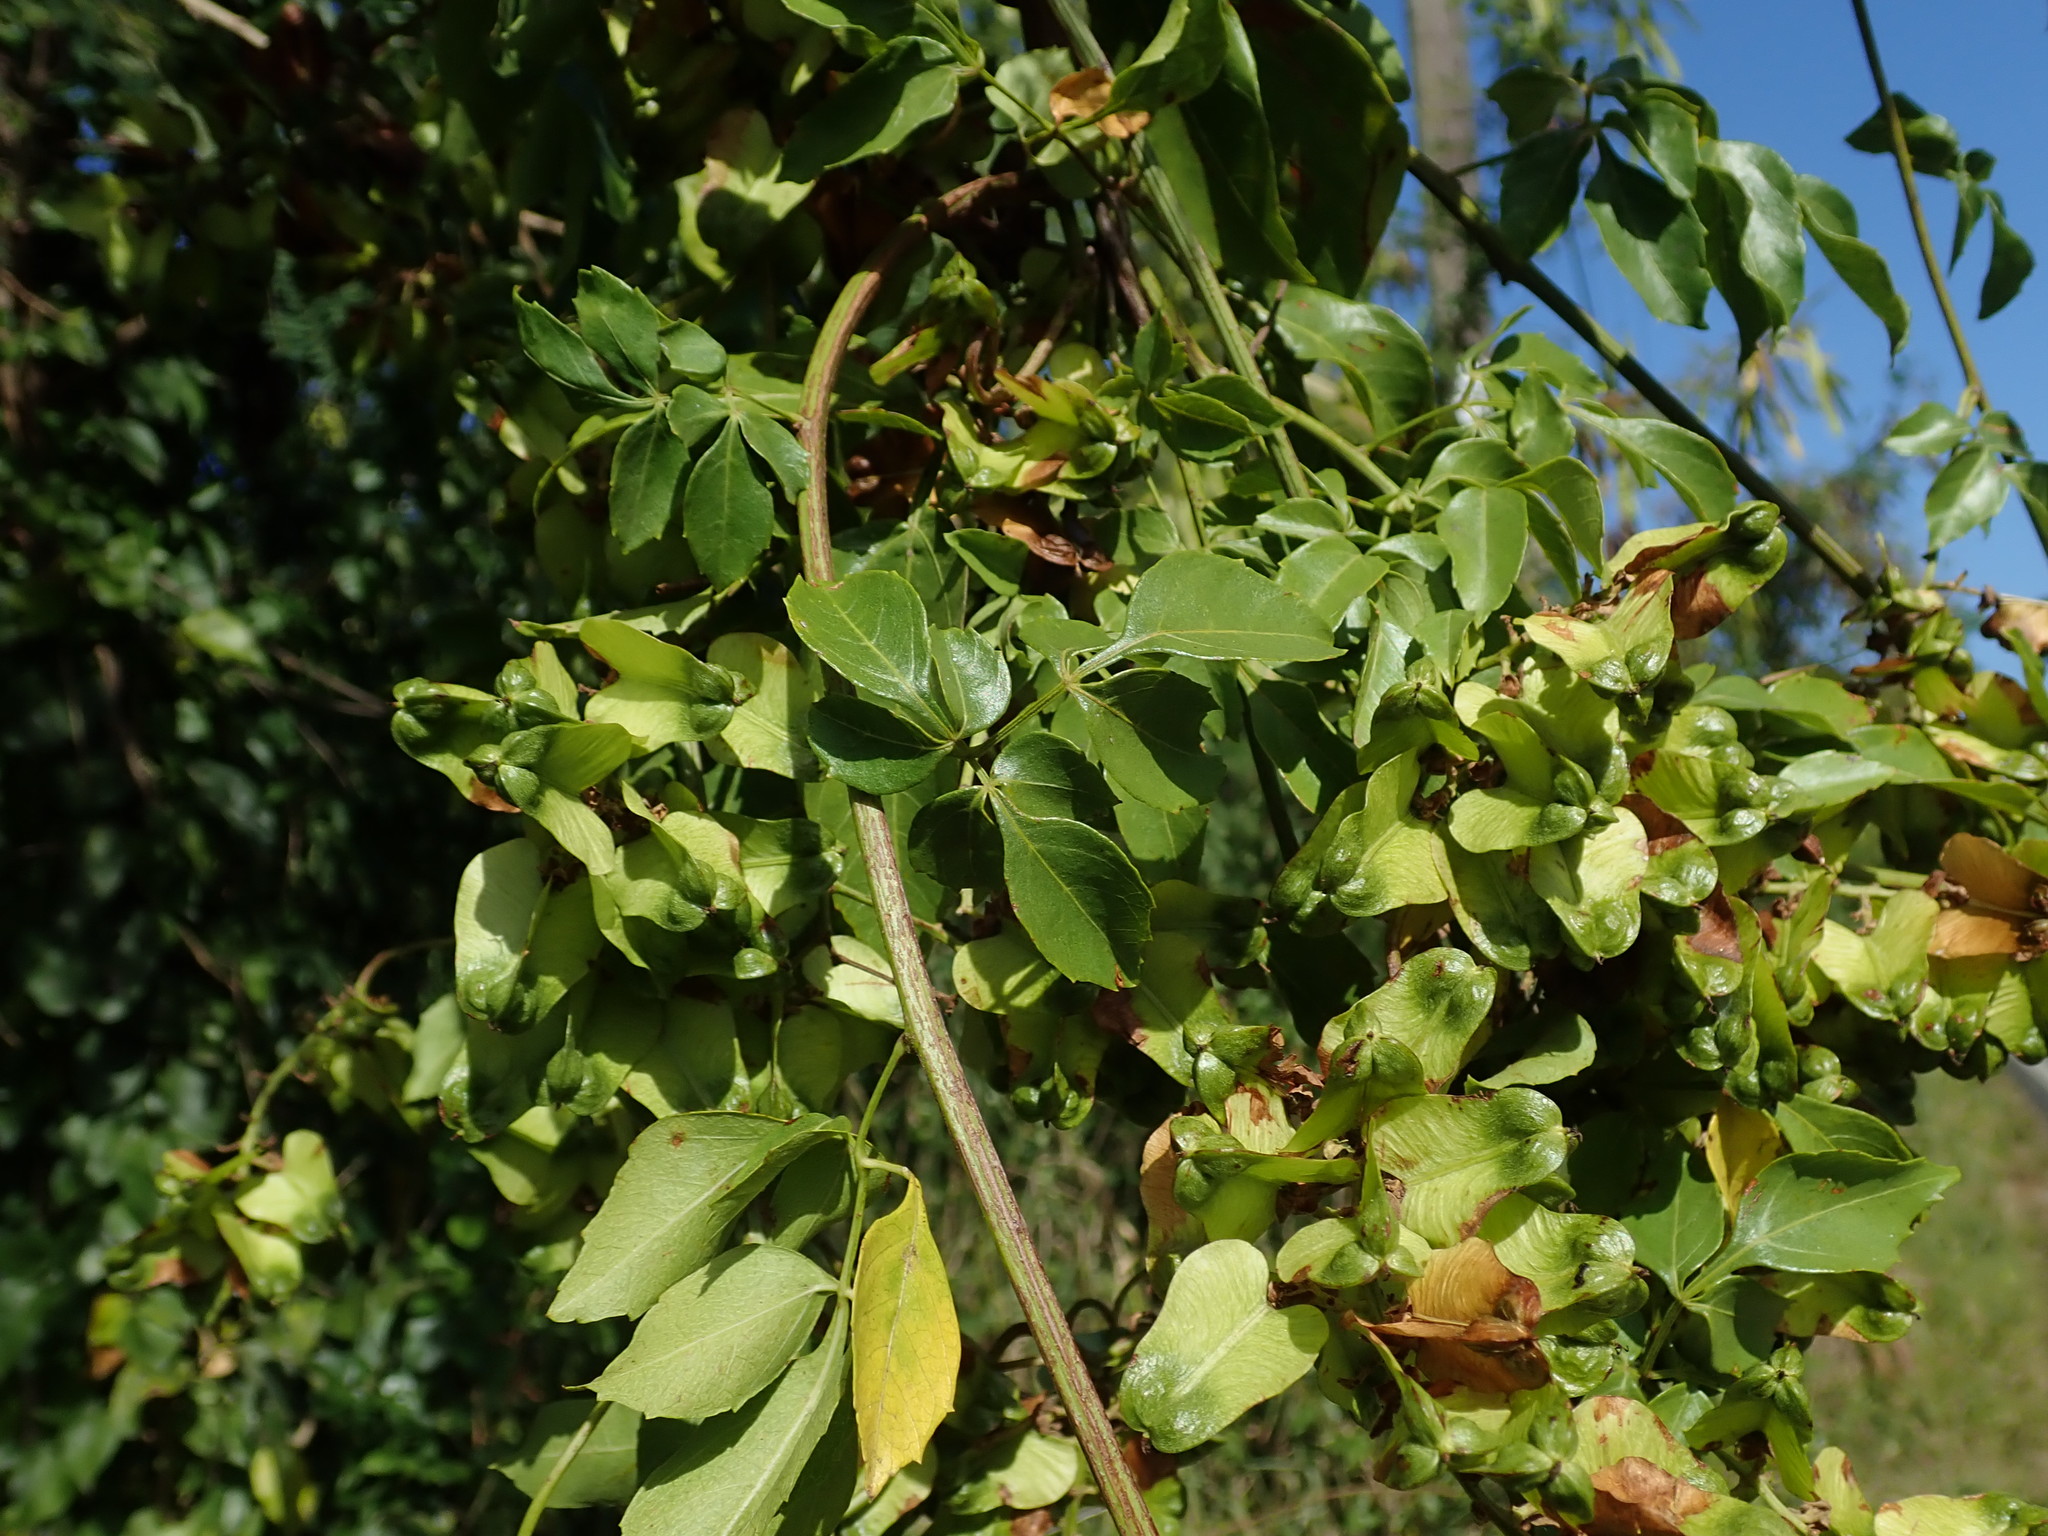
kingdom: Plantae
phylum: Tracheophyta
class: Magnoliopsida
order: Sapindales
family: Sapindaceae
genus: Serjania
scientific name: Serjania lucida
